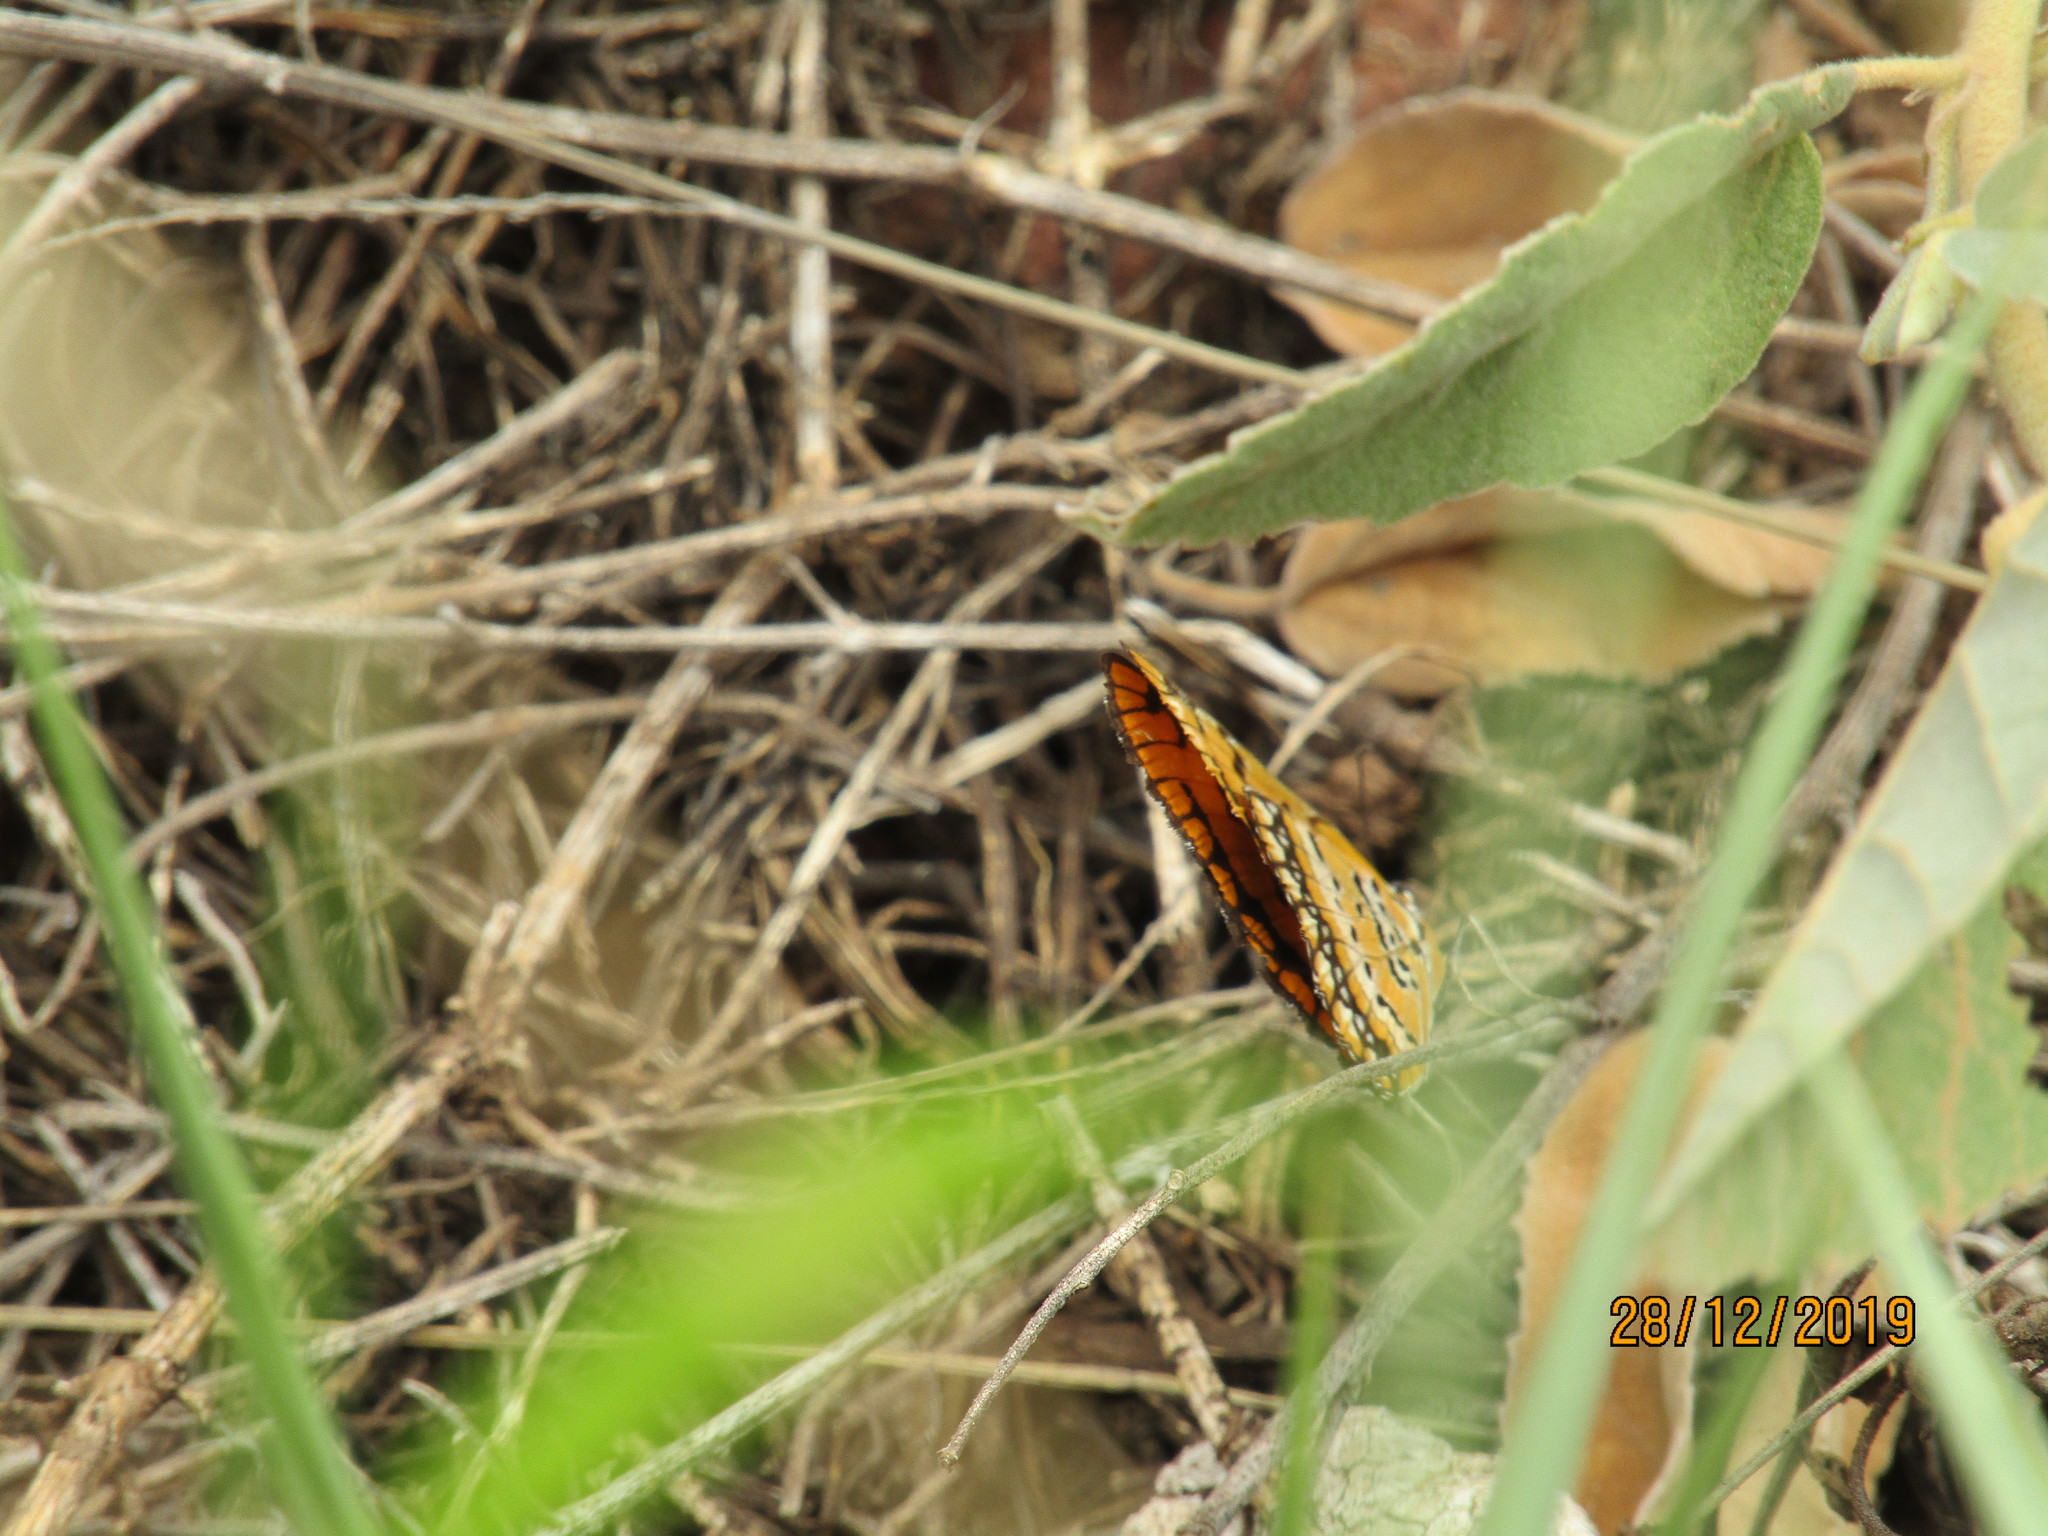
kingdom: Animalia
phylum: Arthropoda
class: Insecta
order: Lepidoptera
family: Nymphalidae
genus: Byblia
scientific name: Byblia ilithyia
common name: Spotted joker
